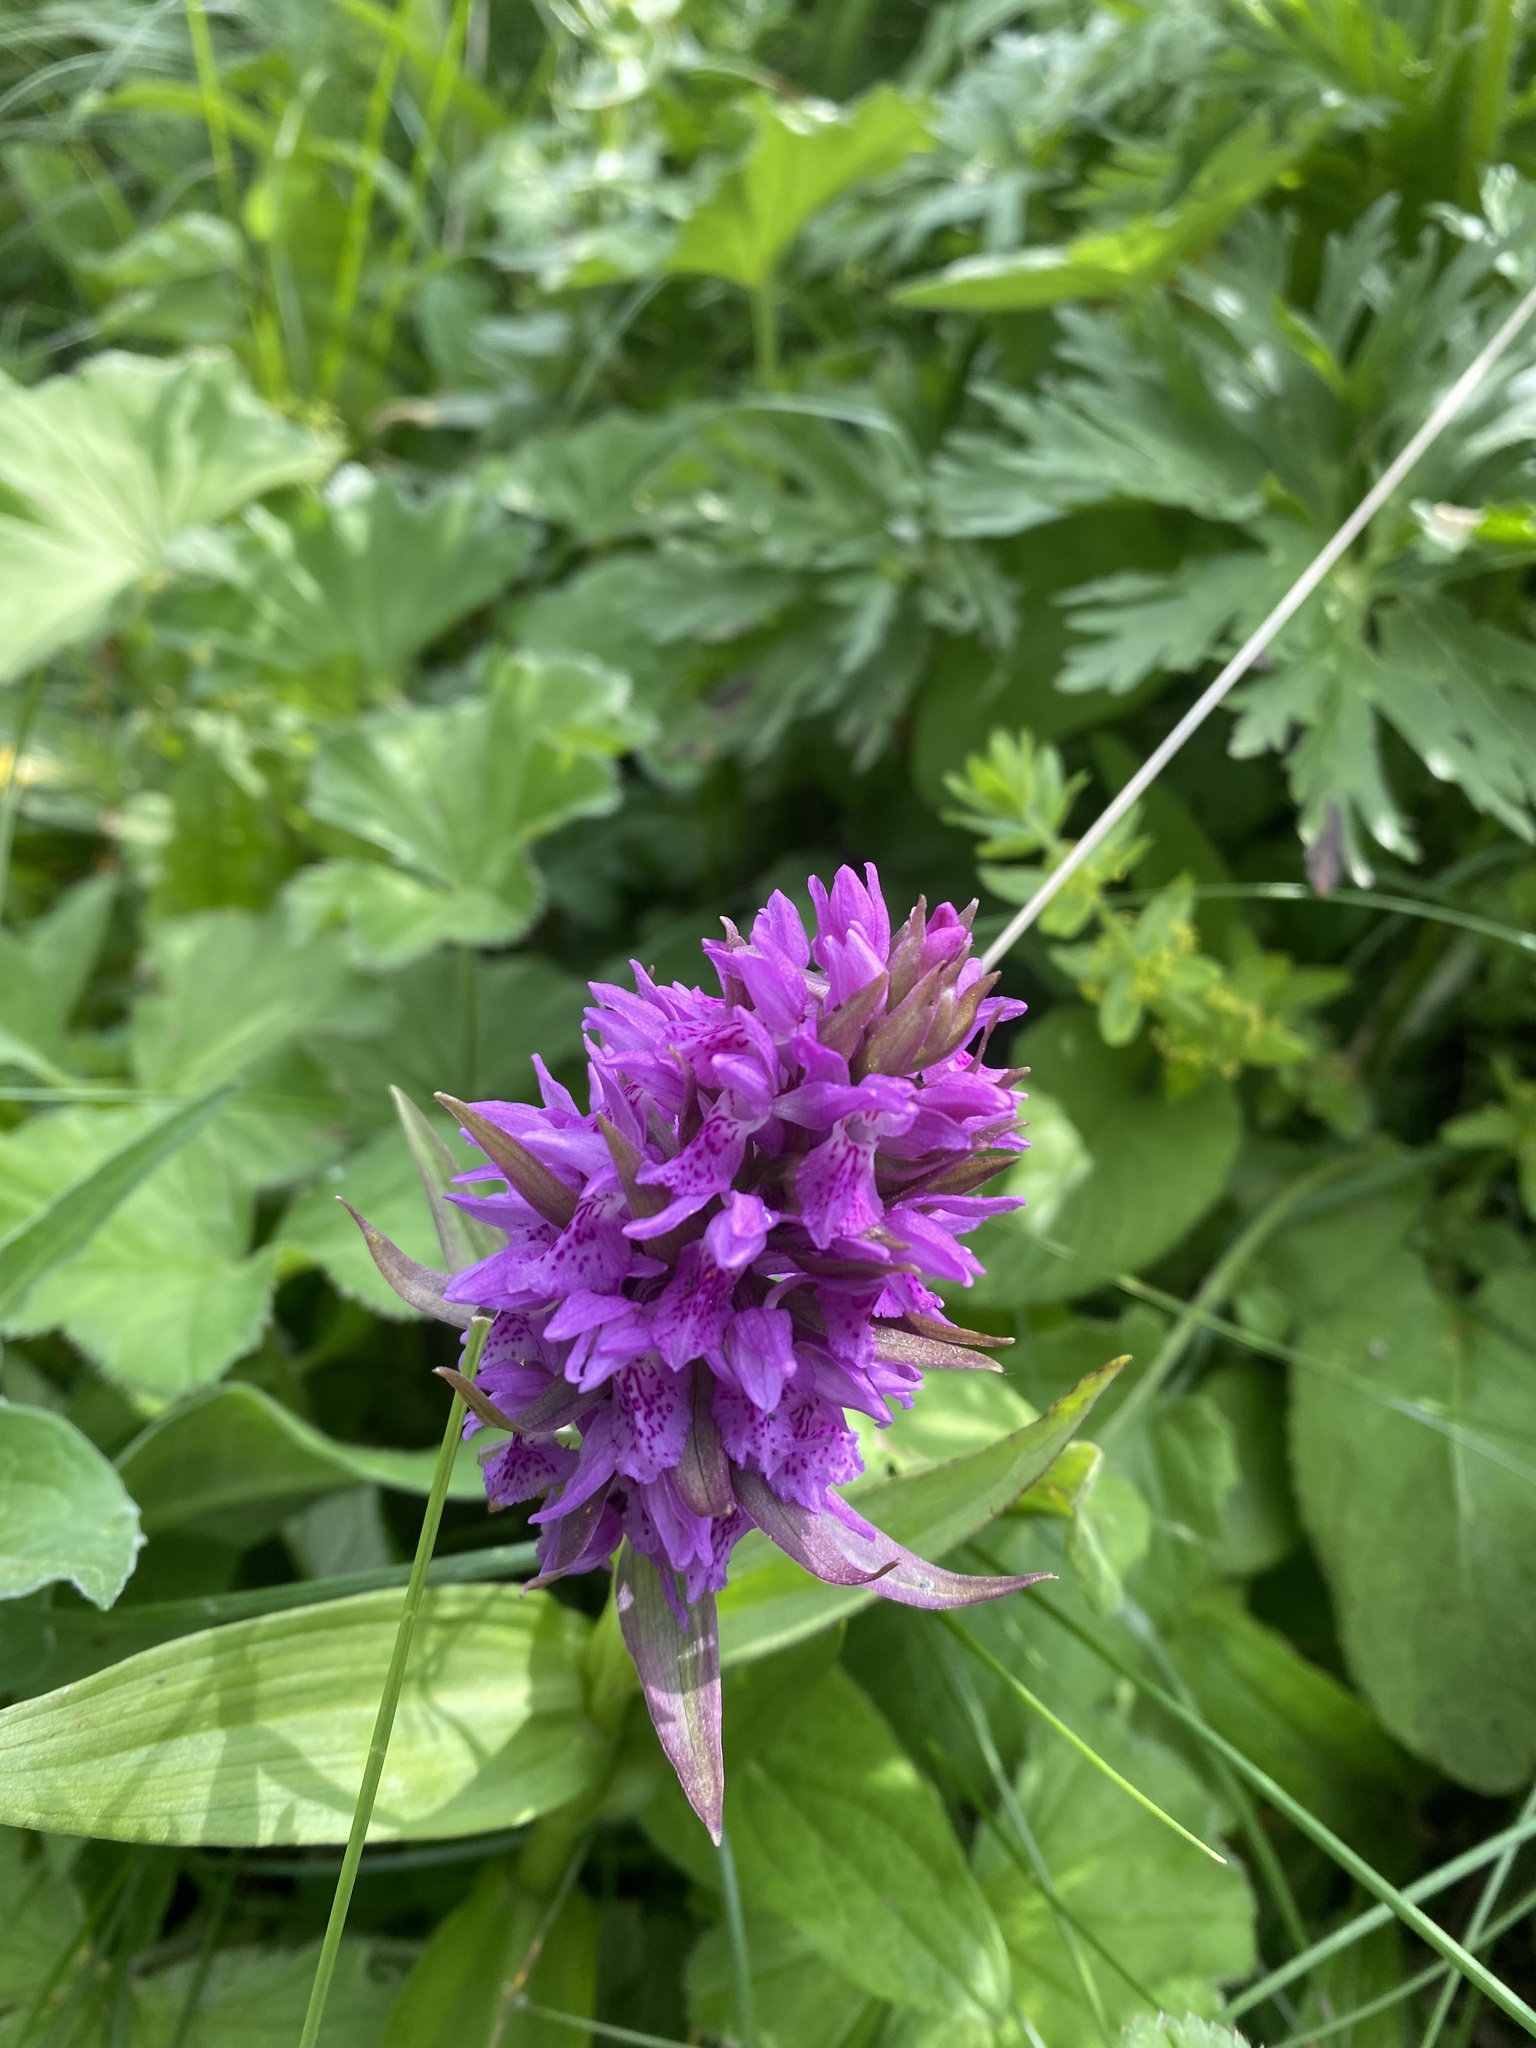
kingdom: Plantae
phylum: Tracheophyta
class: Liliopsida
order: Asparagales
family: Orchidaceae
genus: Dactylorhiza
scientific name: Dactylorhiza euxina
